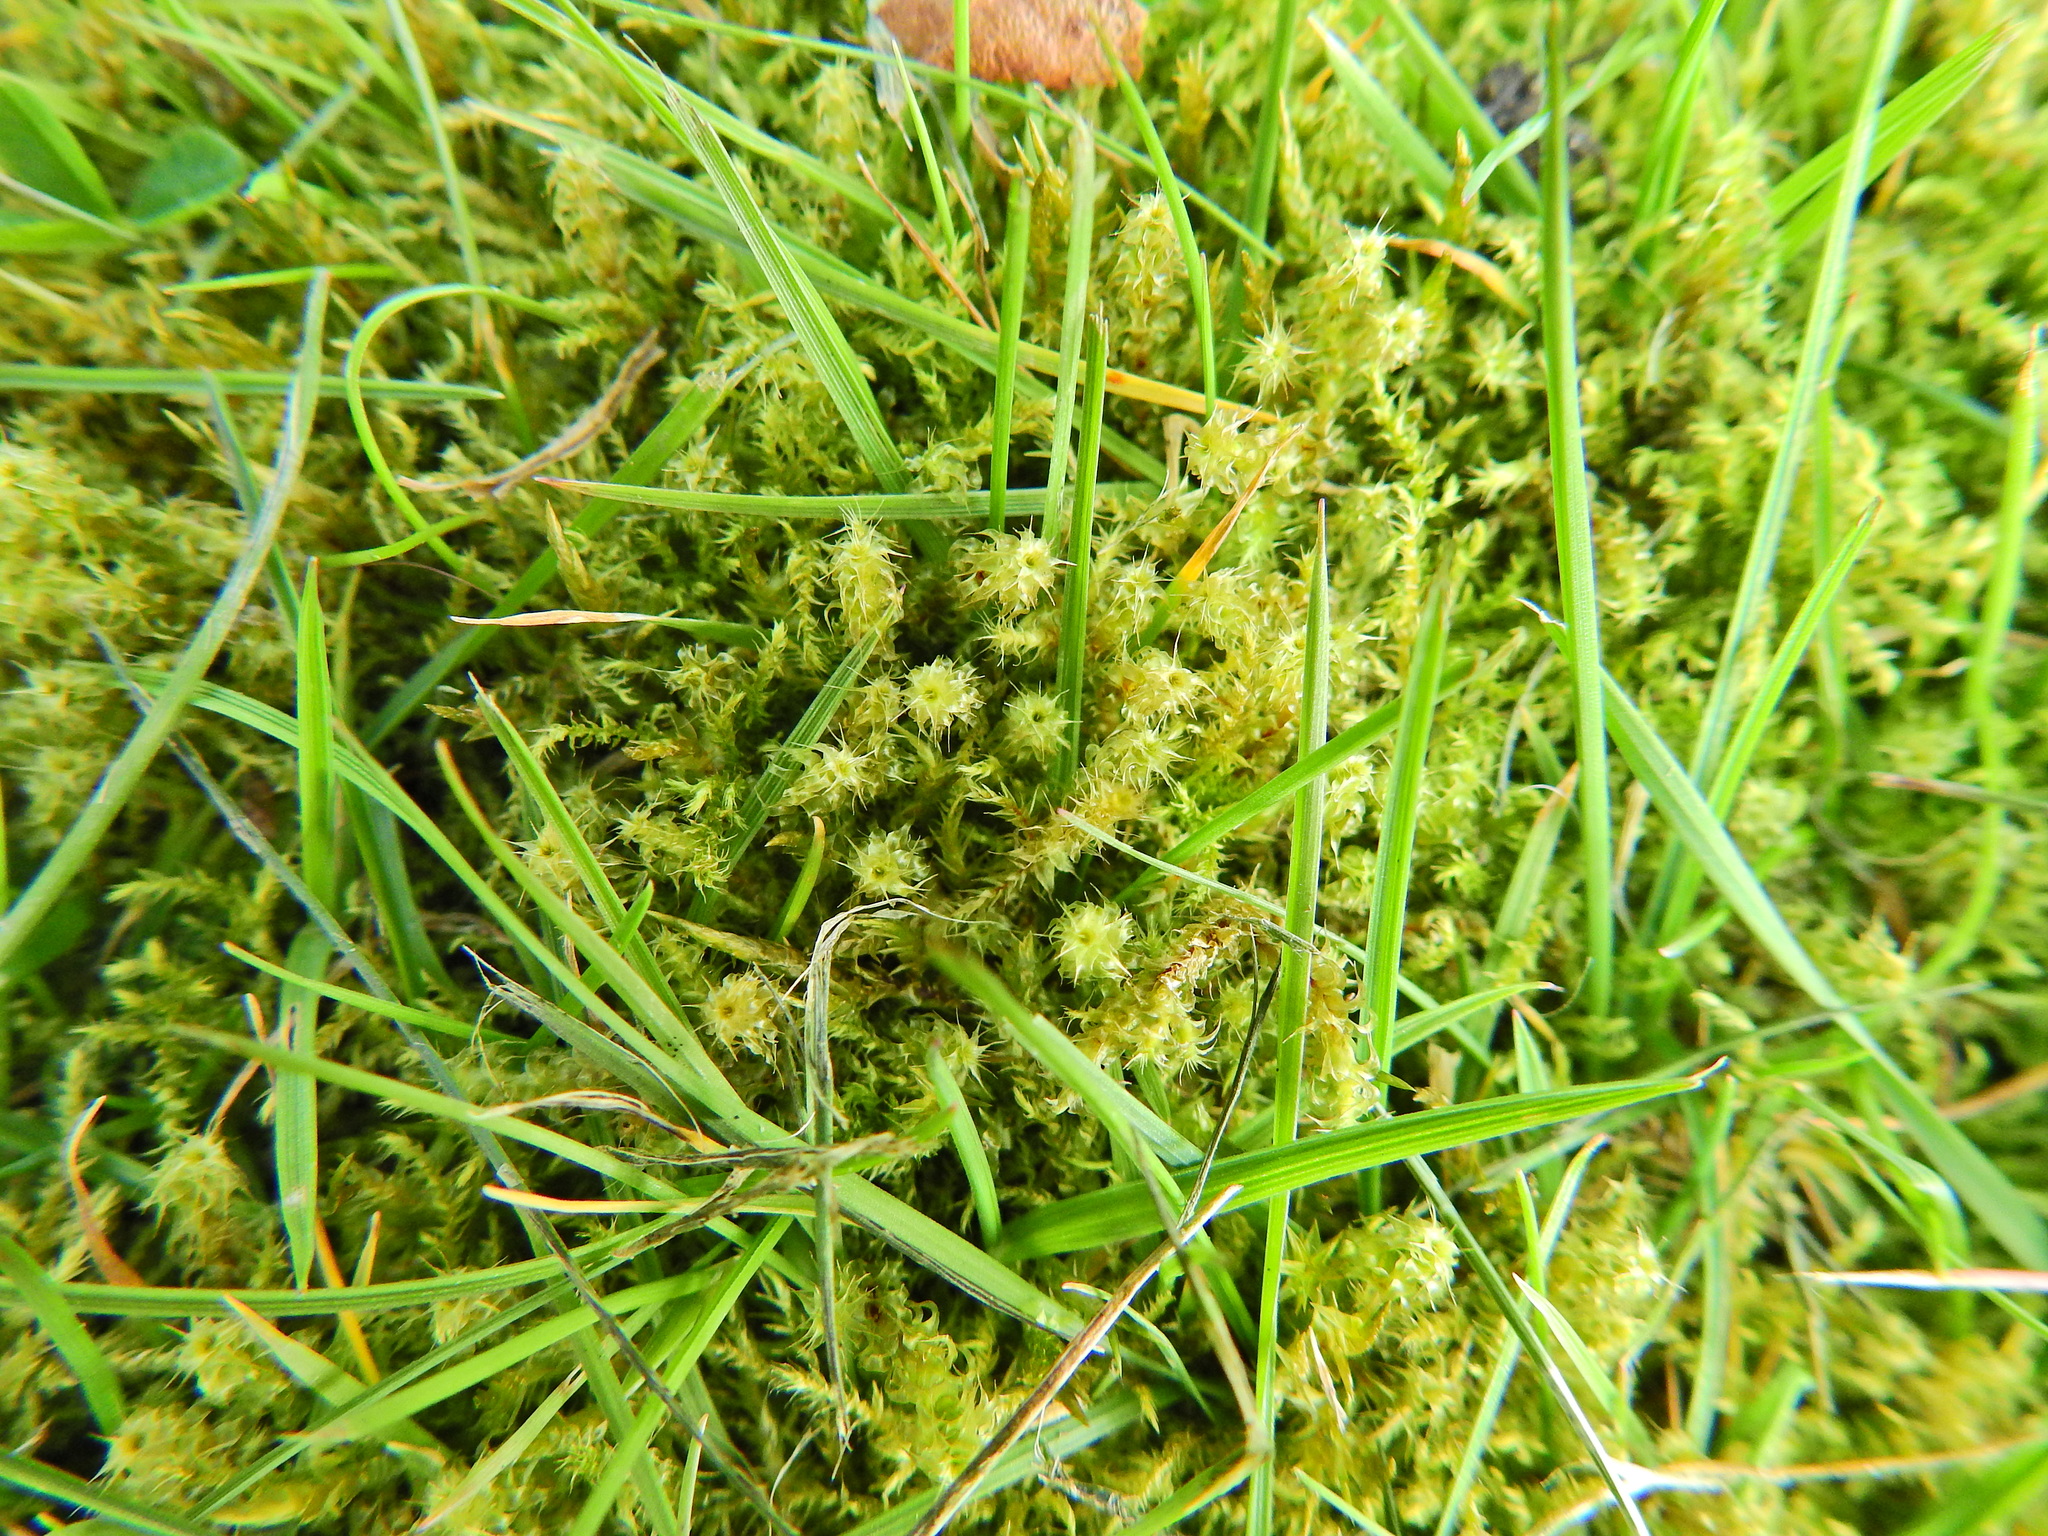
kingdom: Plantae
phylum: Bryophyta
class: Bryopsida
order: Hypnales
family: Hylocomiaceae
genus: Rhytidiadelphus
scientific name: Rhytidiadelphus squarrosus
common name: Springy turf-moss
